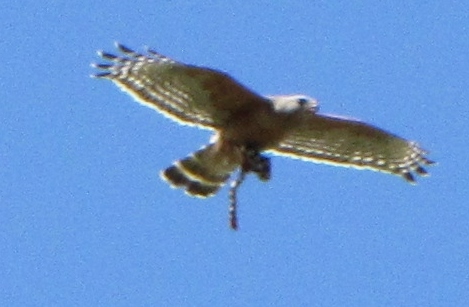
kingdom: Animalia
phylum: Chordata
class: Squamata
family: Colubridae
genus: Lampropeltis
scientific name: Lampropeltis californiae
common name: California kingsnake
